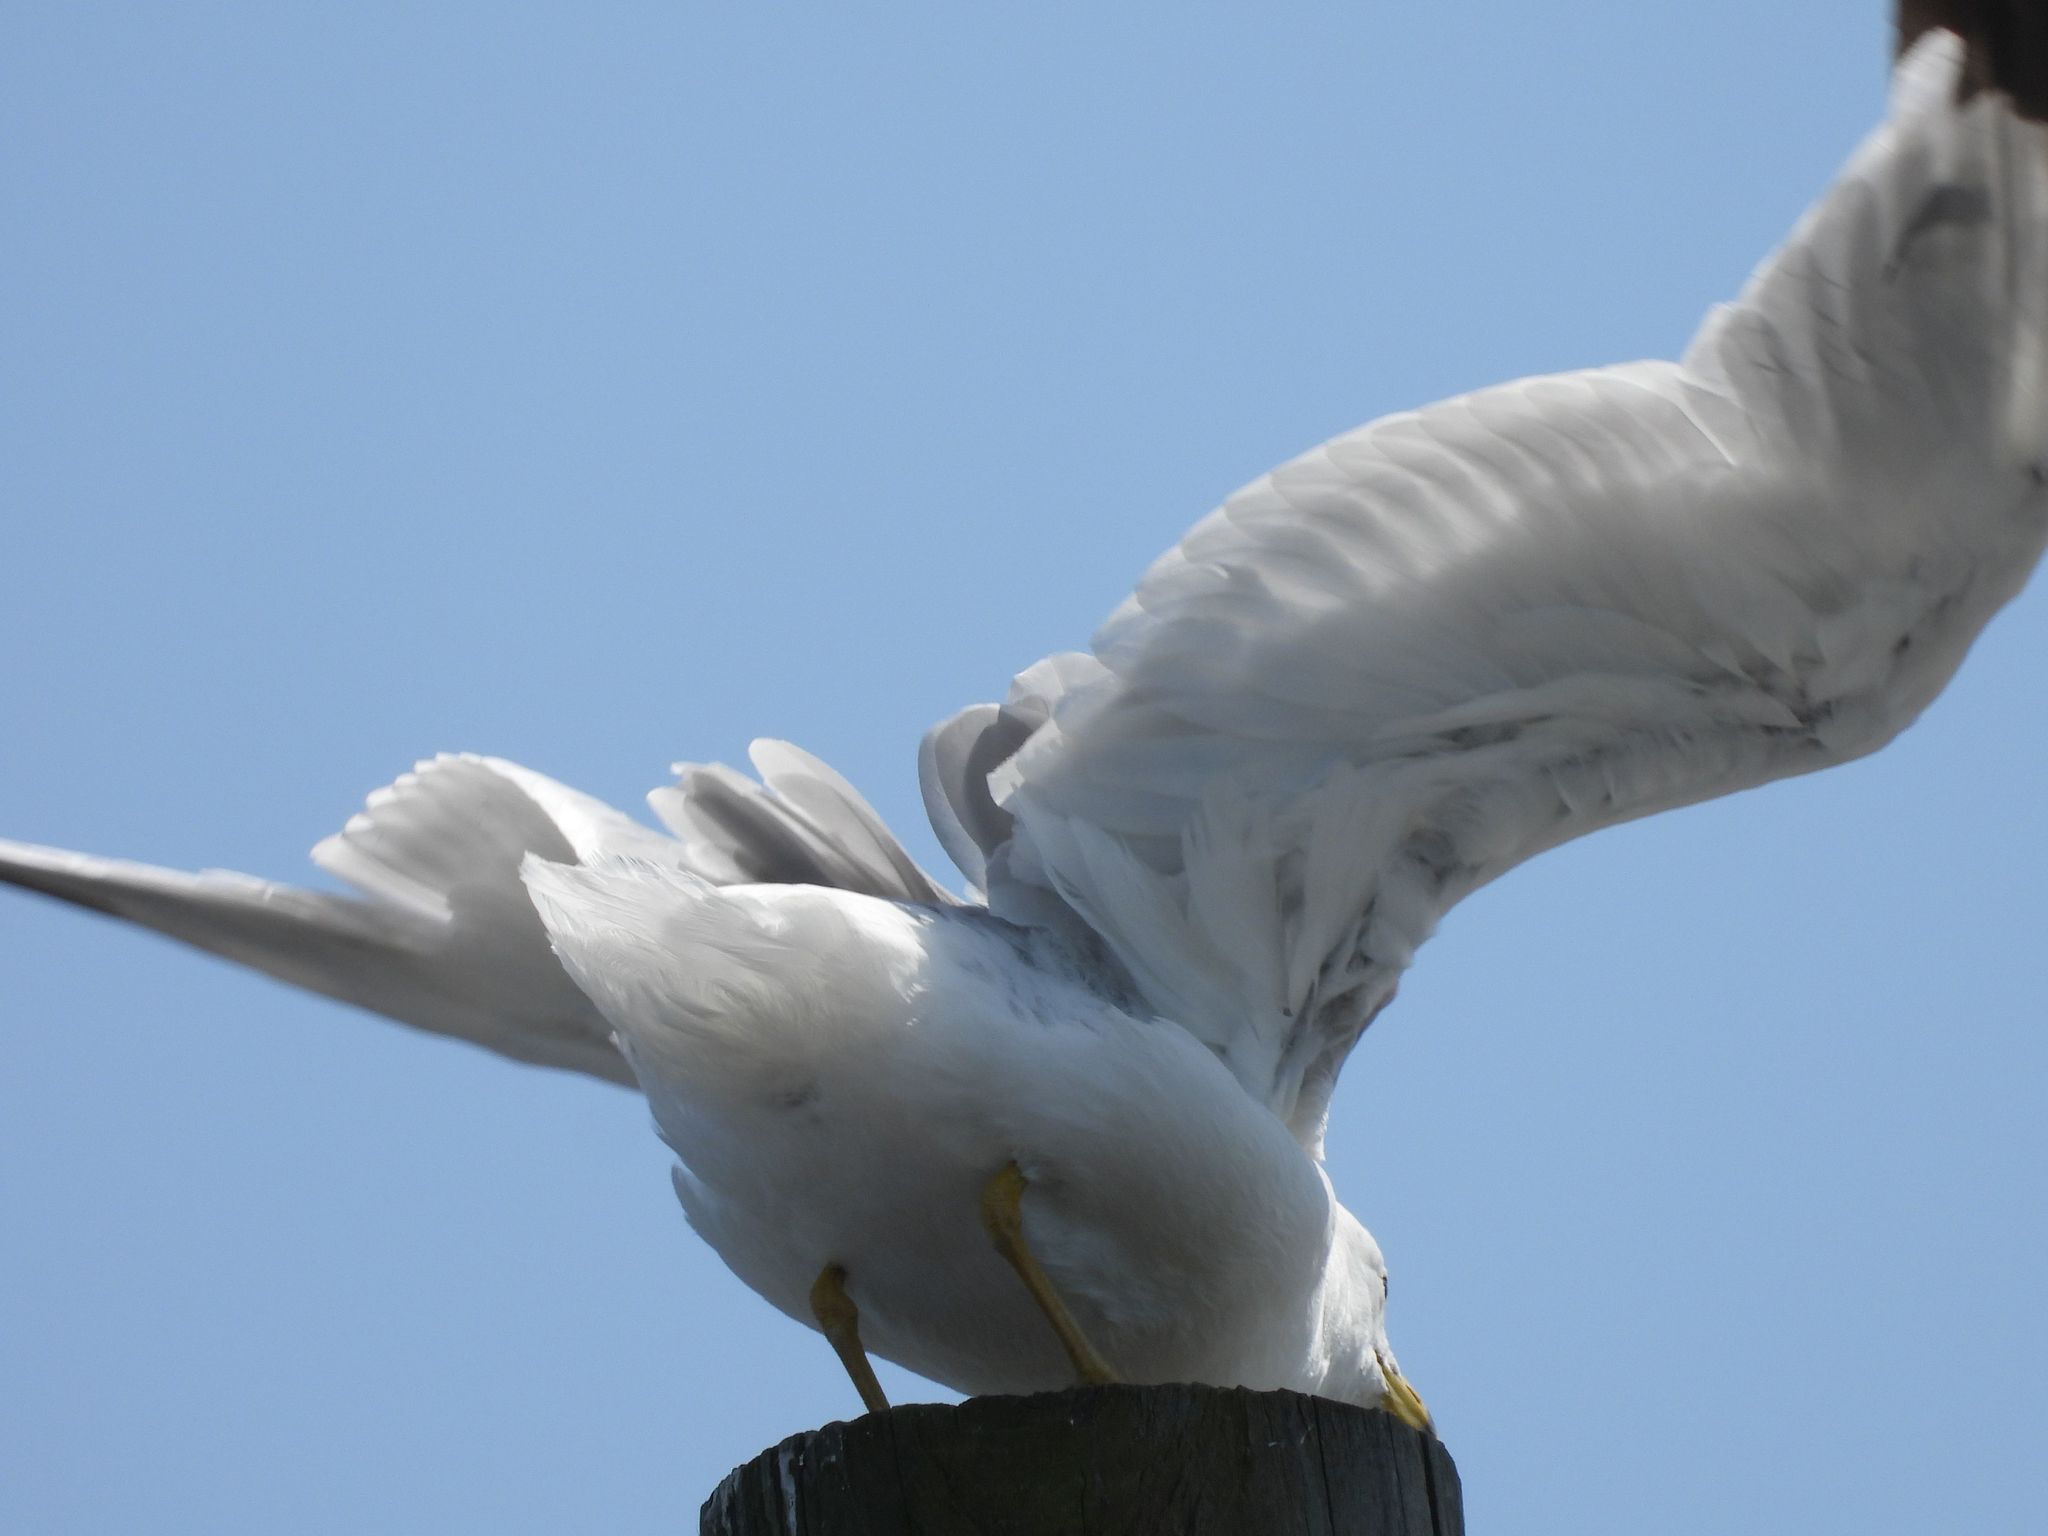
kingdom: Animalia
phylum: Chordata
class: Aves
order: Charadriiformes
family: Laridae
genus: Larus
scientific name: Larus delawarensis
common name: Ring-billed gull
